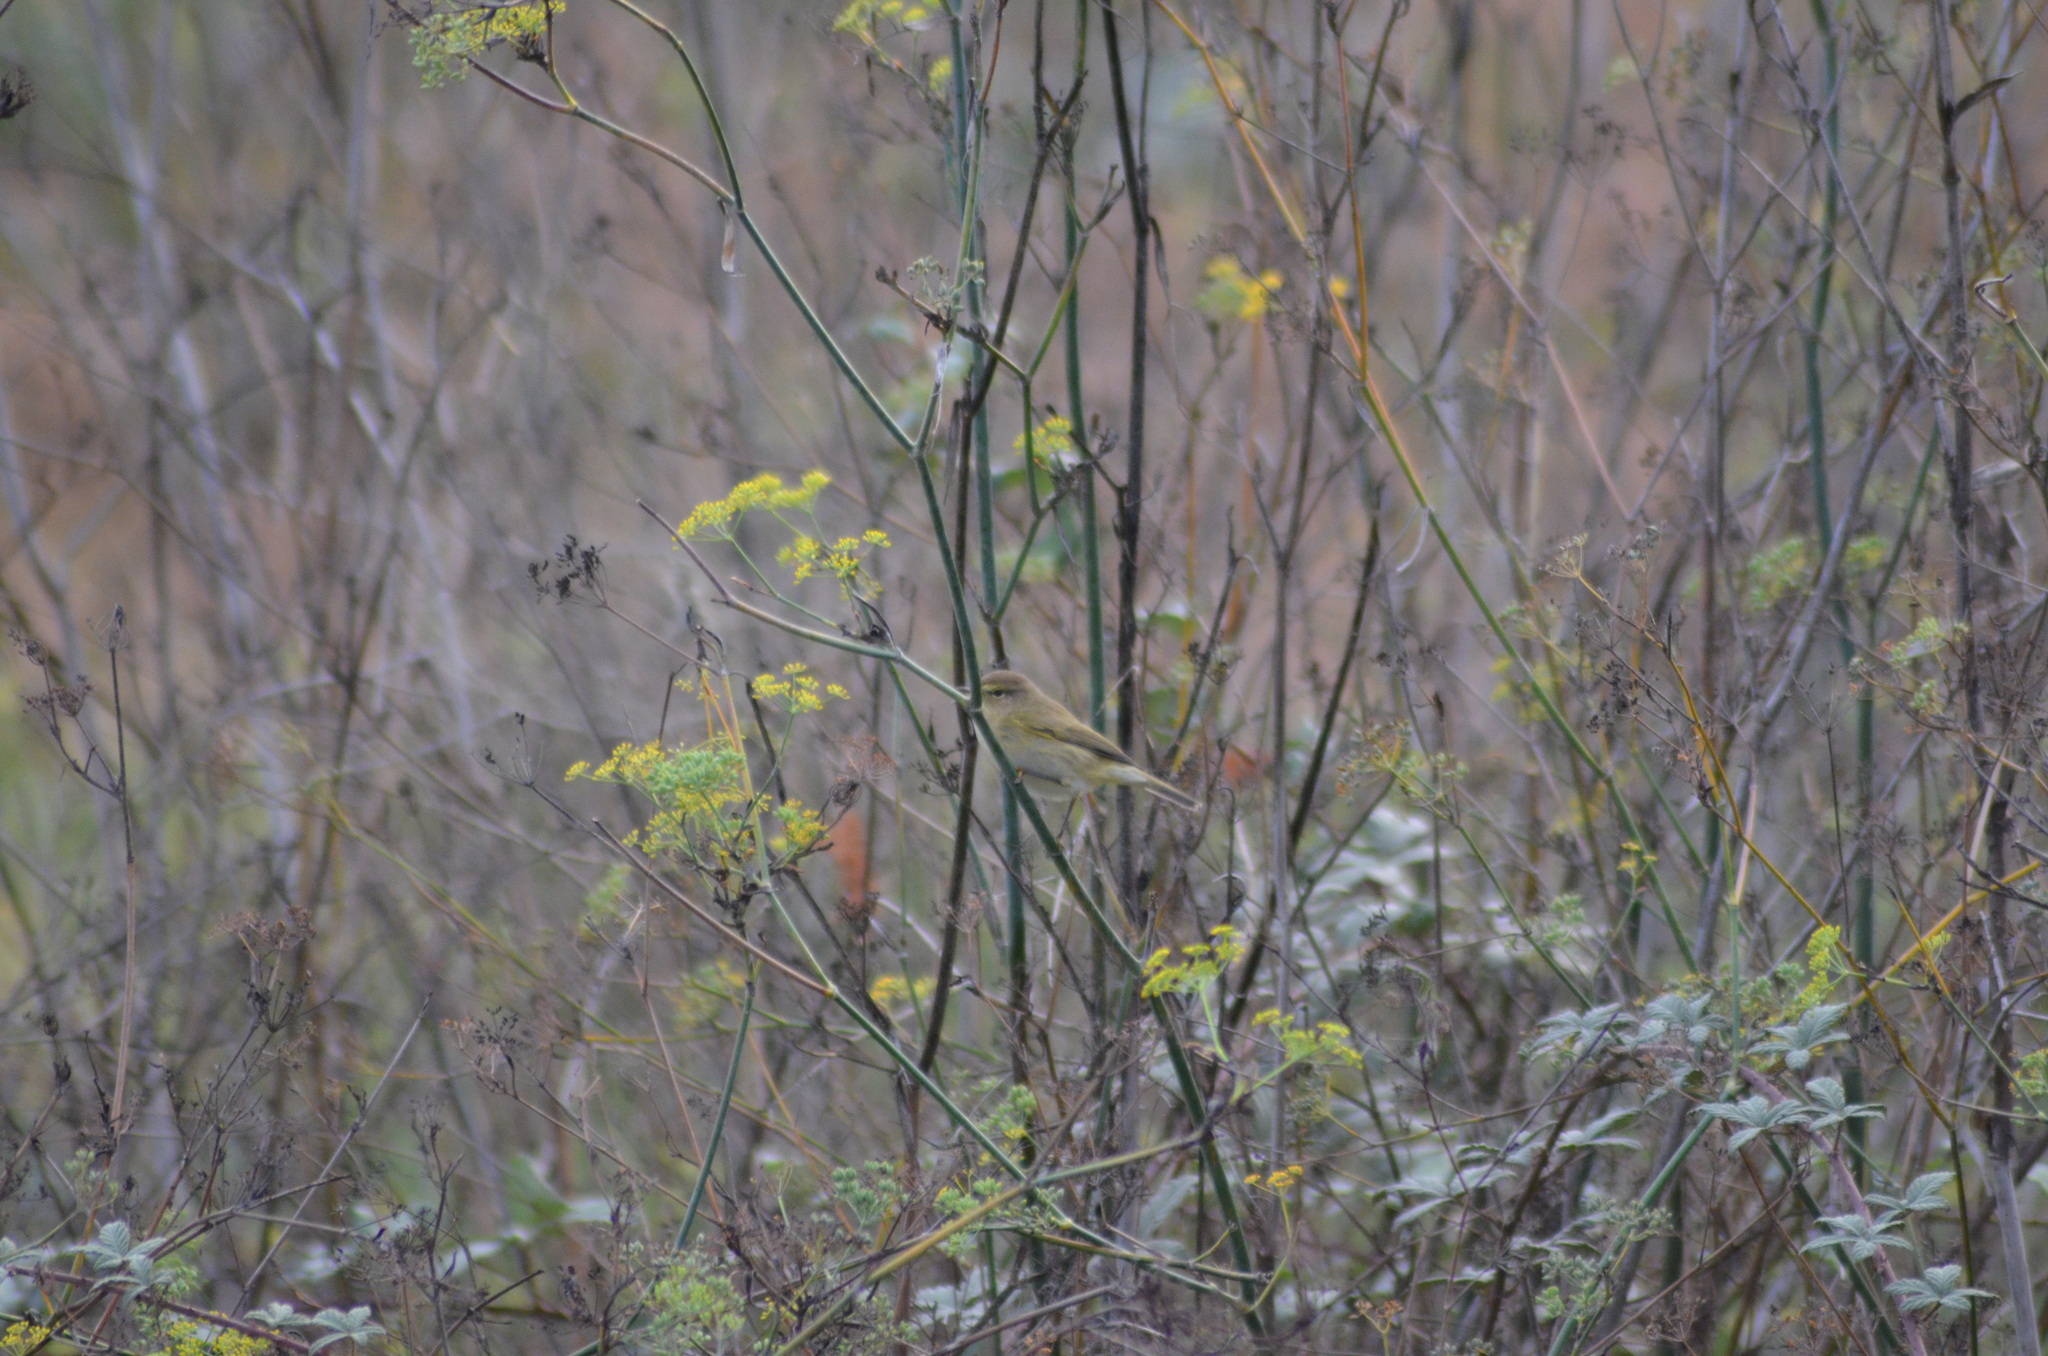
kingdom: Animalia
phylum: Chordata
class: Aves
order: Passeriformes
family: Phylloscopidae
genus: Phylloscopus
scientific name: Phylloscopus collybita
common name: Common chiffchaff
